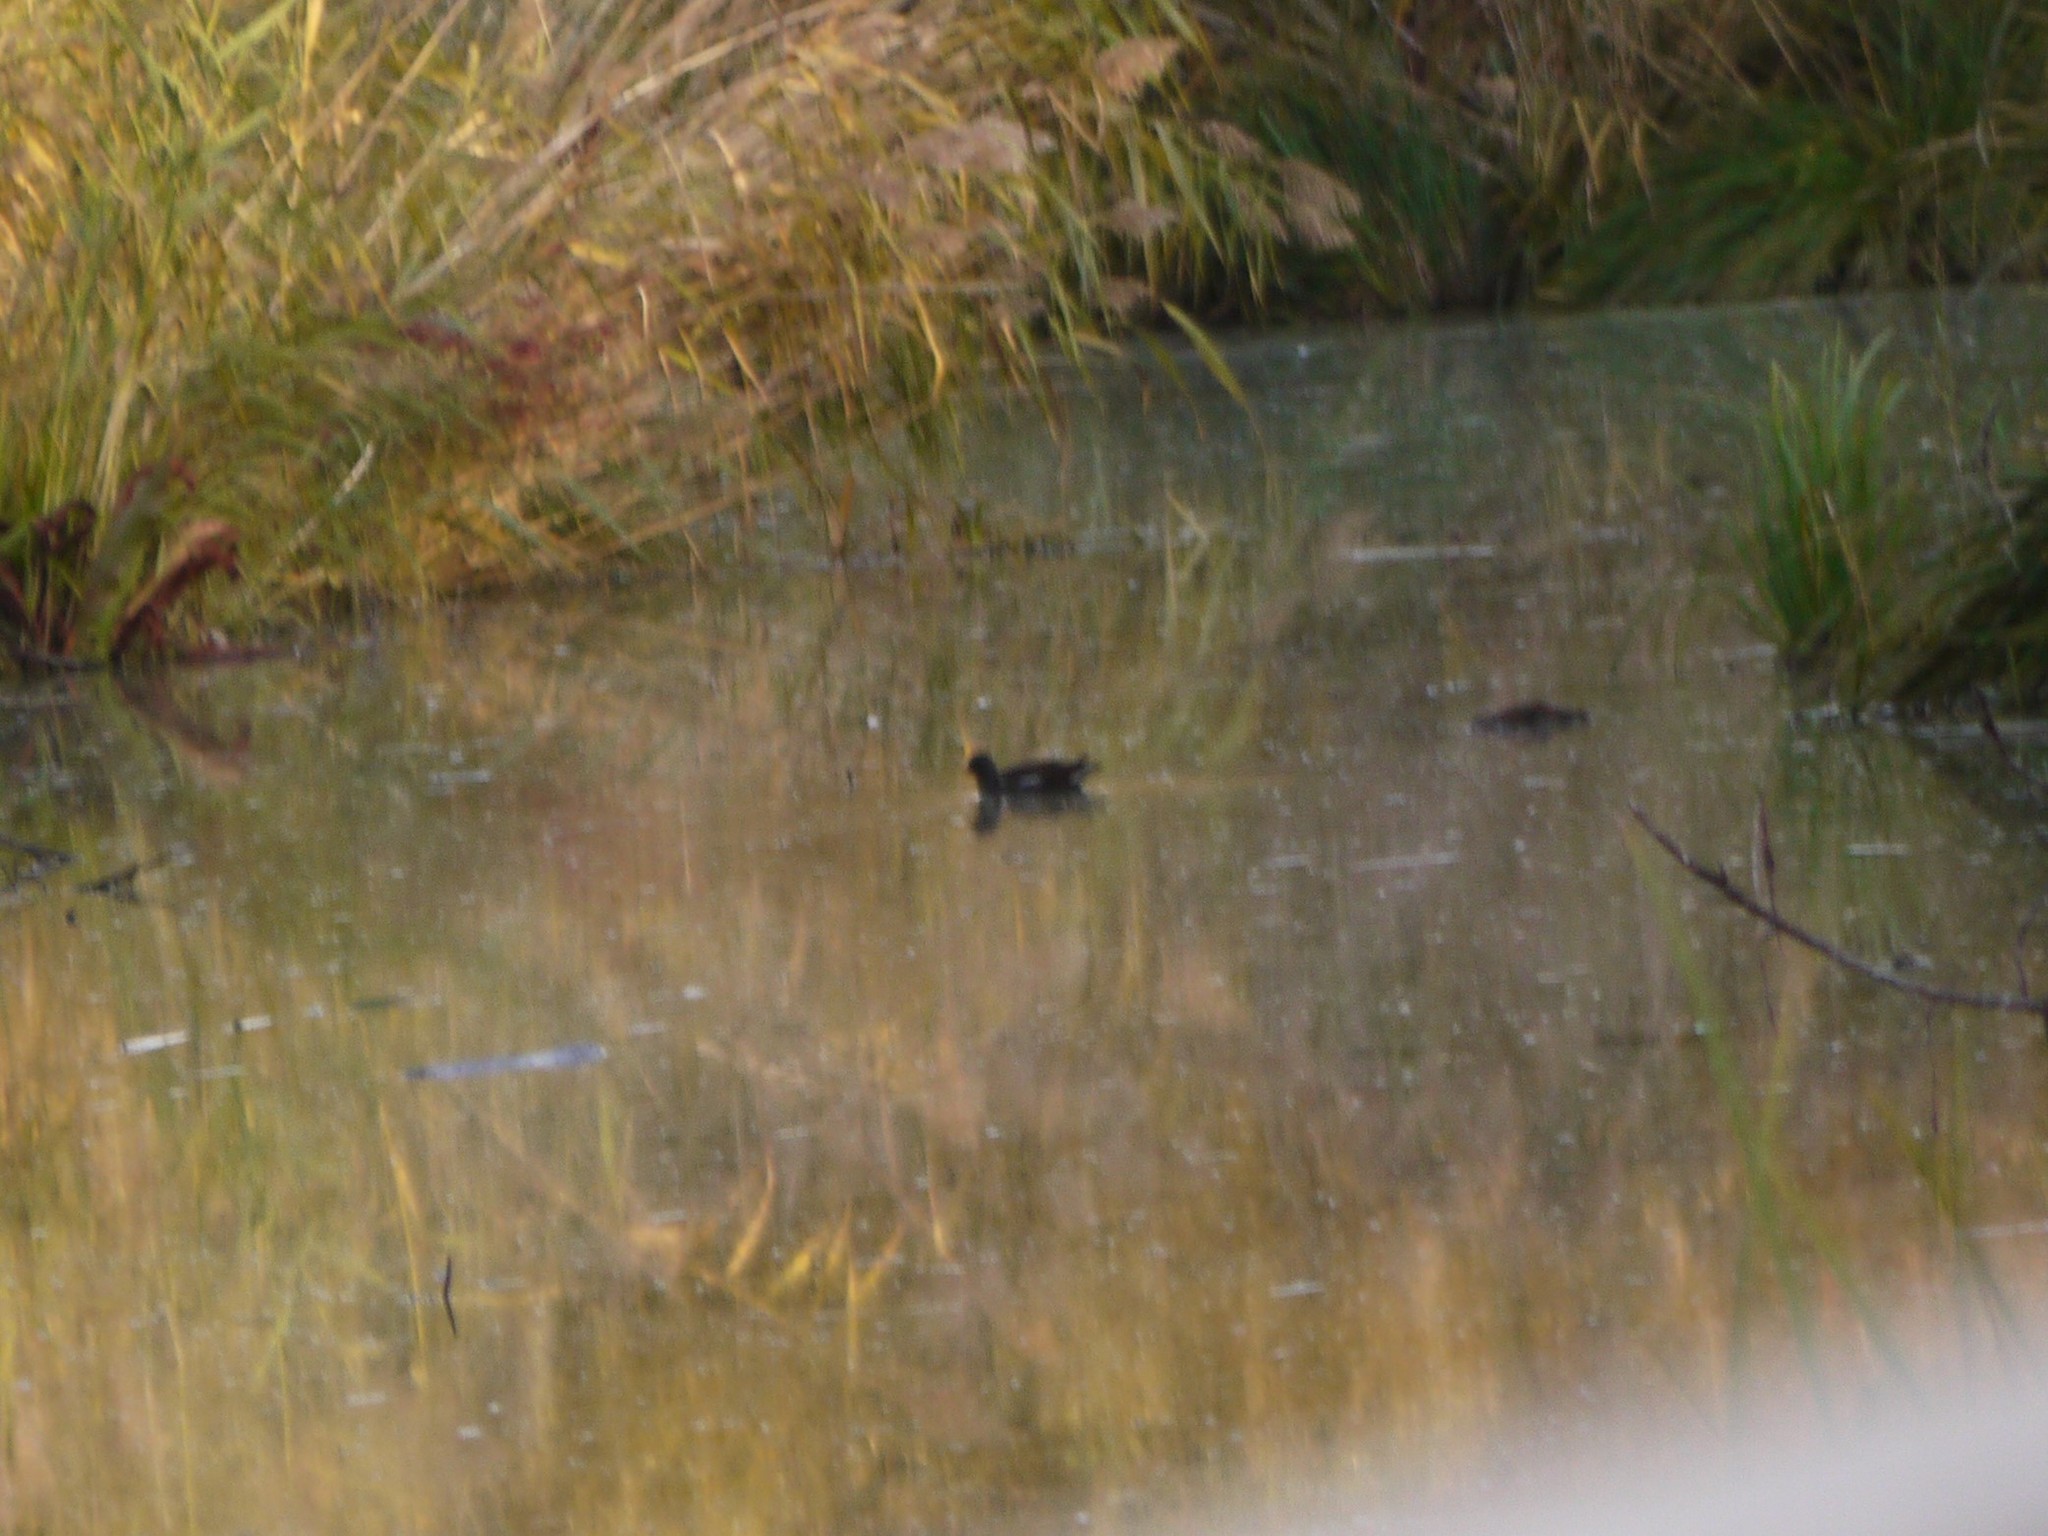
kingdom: Animalia
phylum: Chordata
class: Aves
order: Gruiformes
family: Rallidae
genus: Gallinula
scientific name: Gallinula chloropus
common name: Common moorhen
